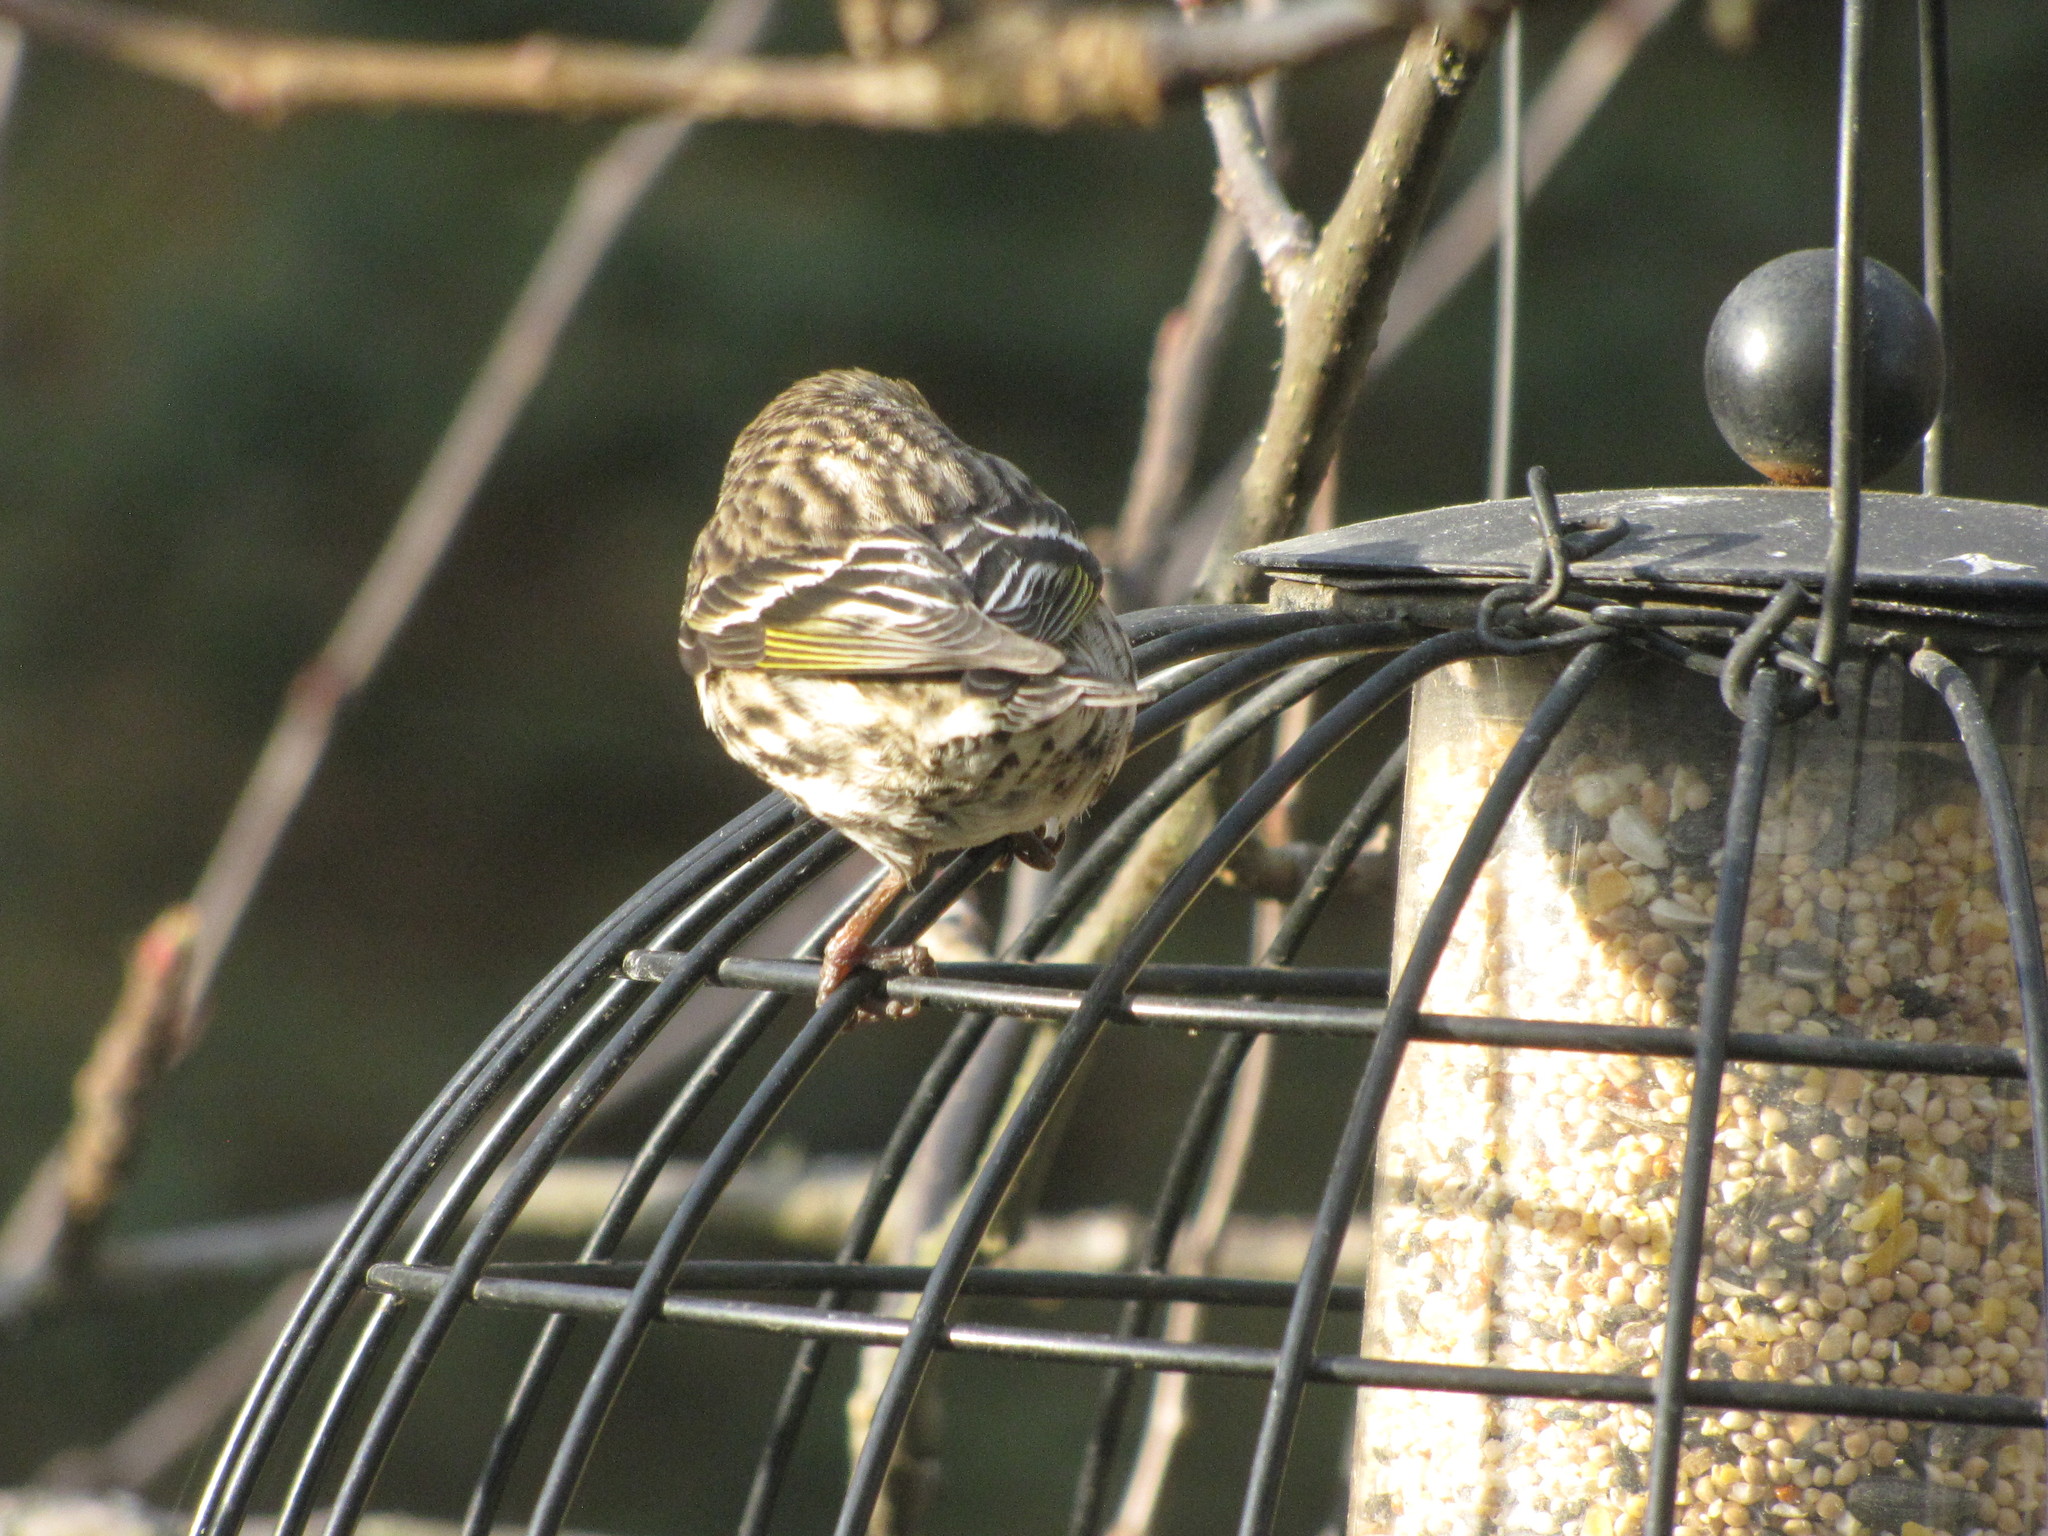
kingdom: Animalia
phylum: Chordata
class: Aves
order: Passeriformes
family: Fringillidae
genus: Spinus
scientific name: Spinus pinus
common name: Pine siskin
